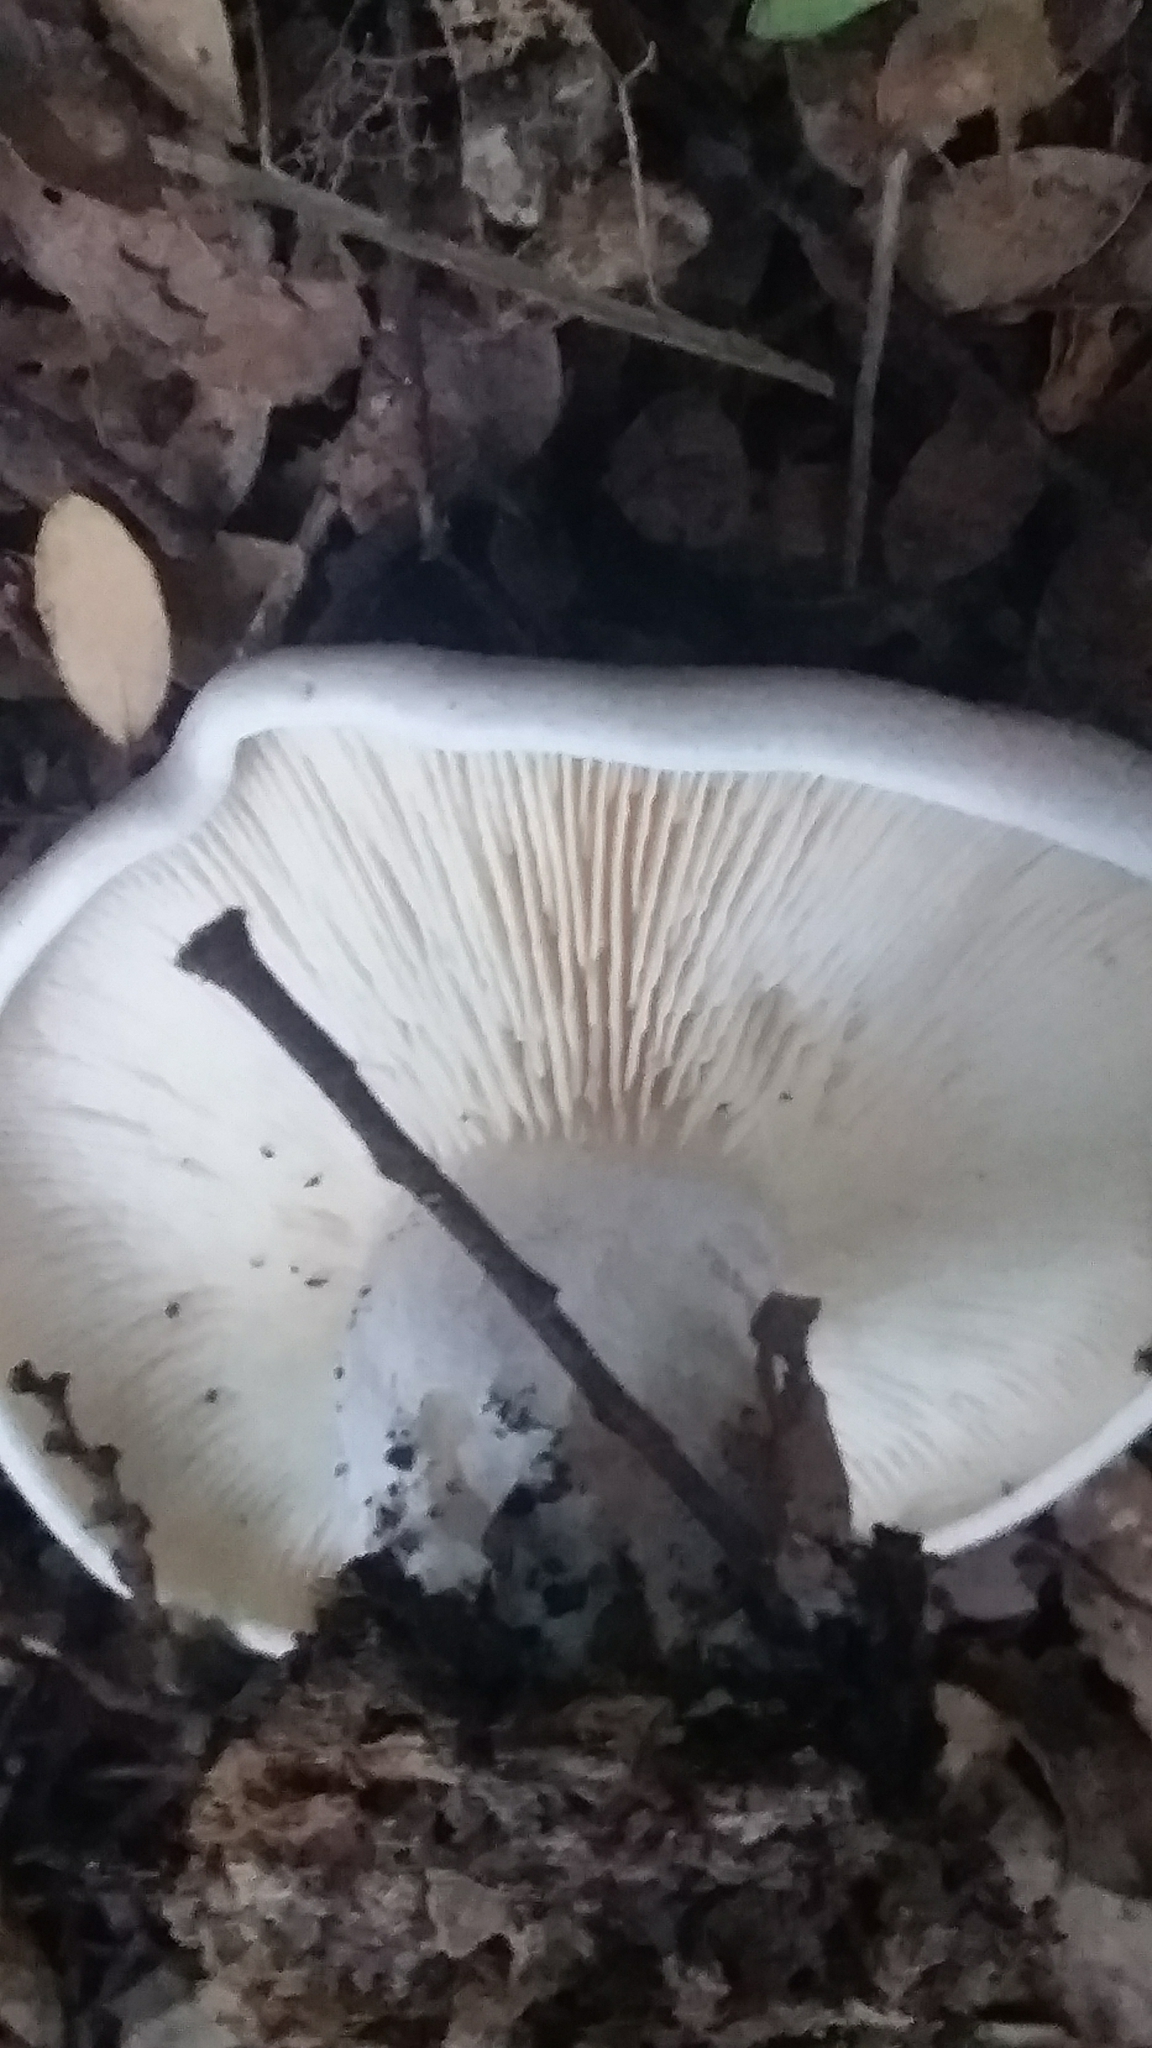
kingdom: Fungi
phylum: Basidiomycota
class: Agaricomycetes
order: Agaricales
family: Tricholomataceae
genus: Clitocybe
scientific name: Clitocybe nebularis
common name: Clouded agaric
